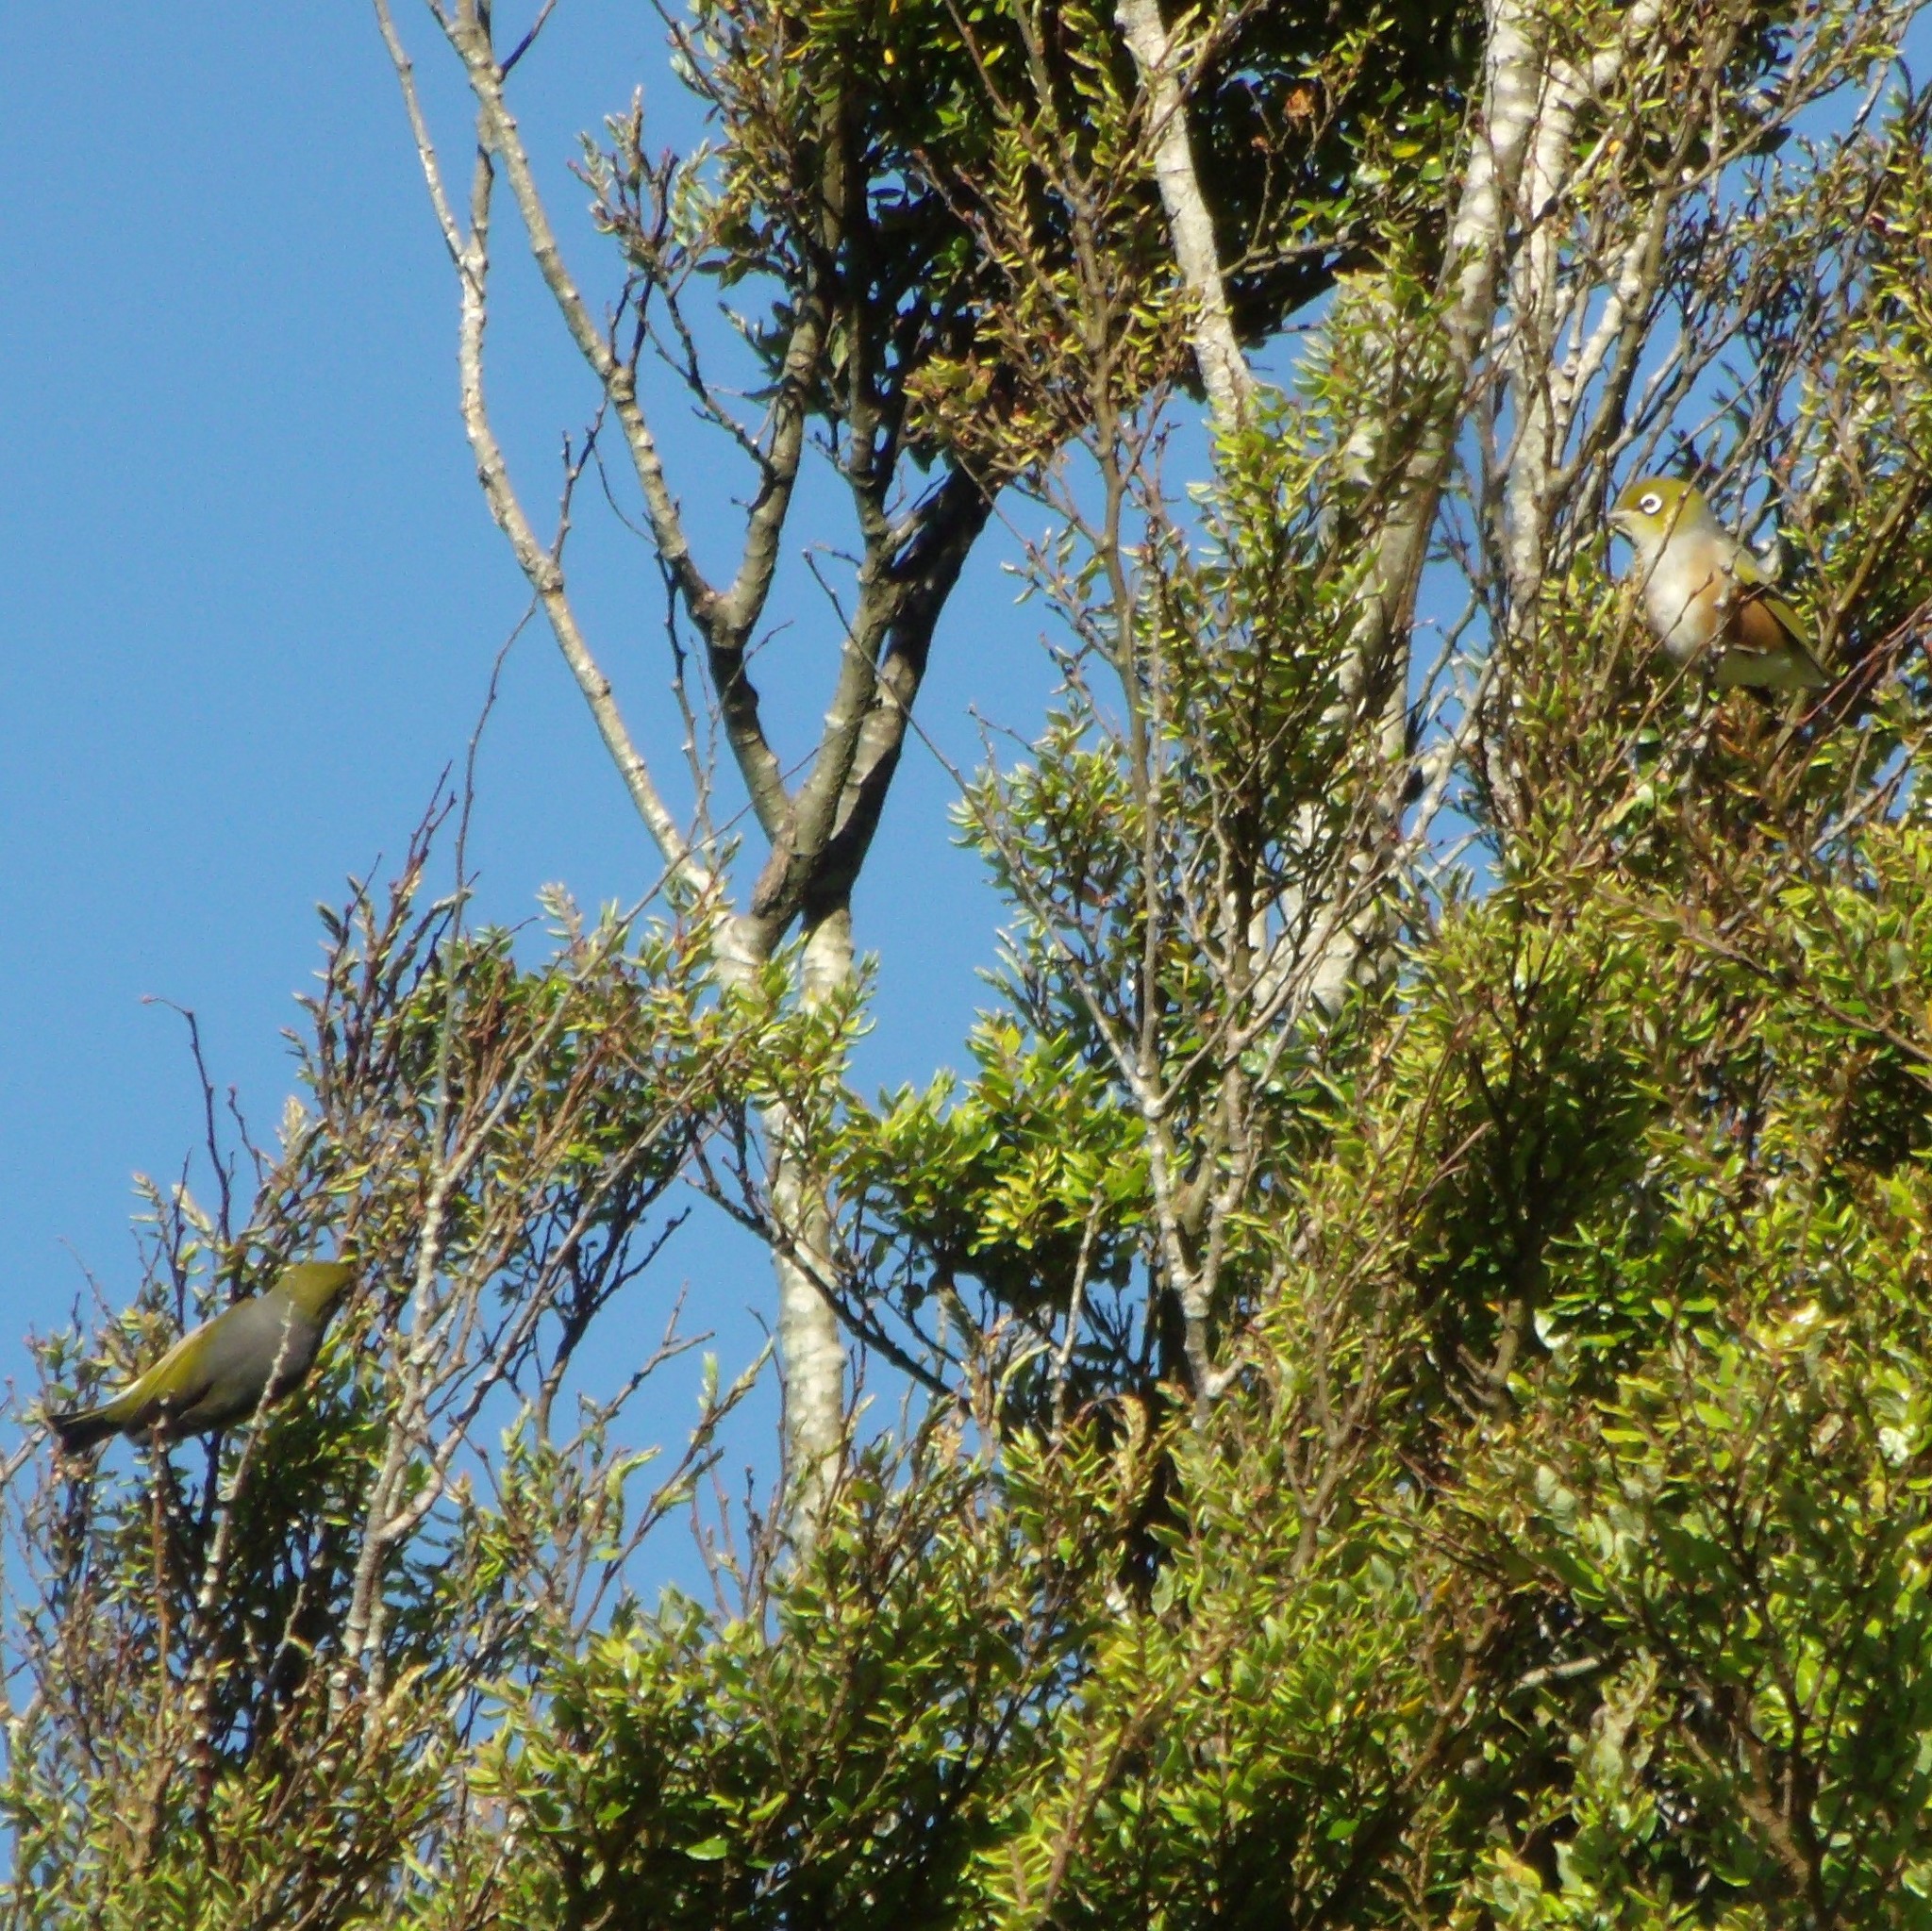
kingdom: Animalia
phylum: Chordata
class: Aves
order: Passeriformes
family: Zosteropidae
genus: Zosterops
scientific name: Zosterops lateralis
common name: Silvereye
